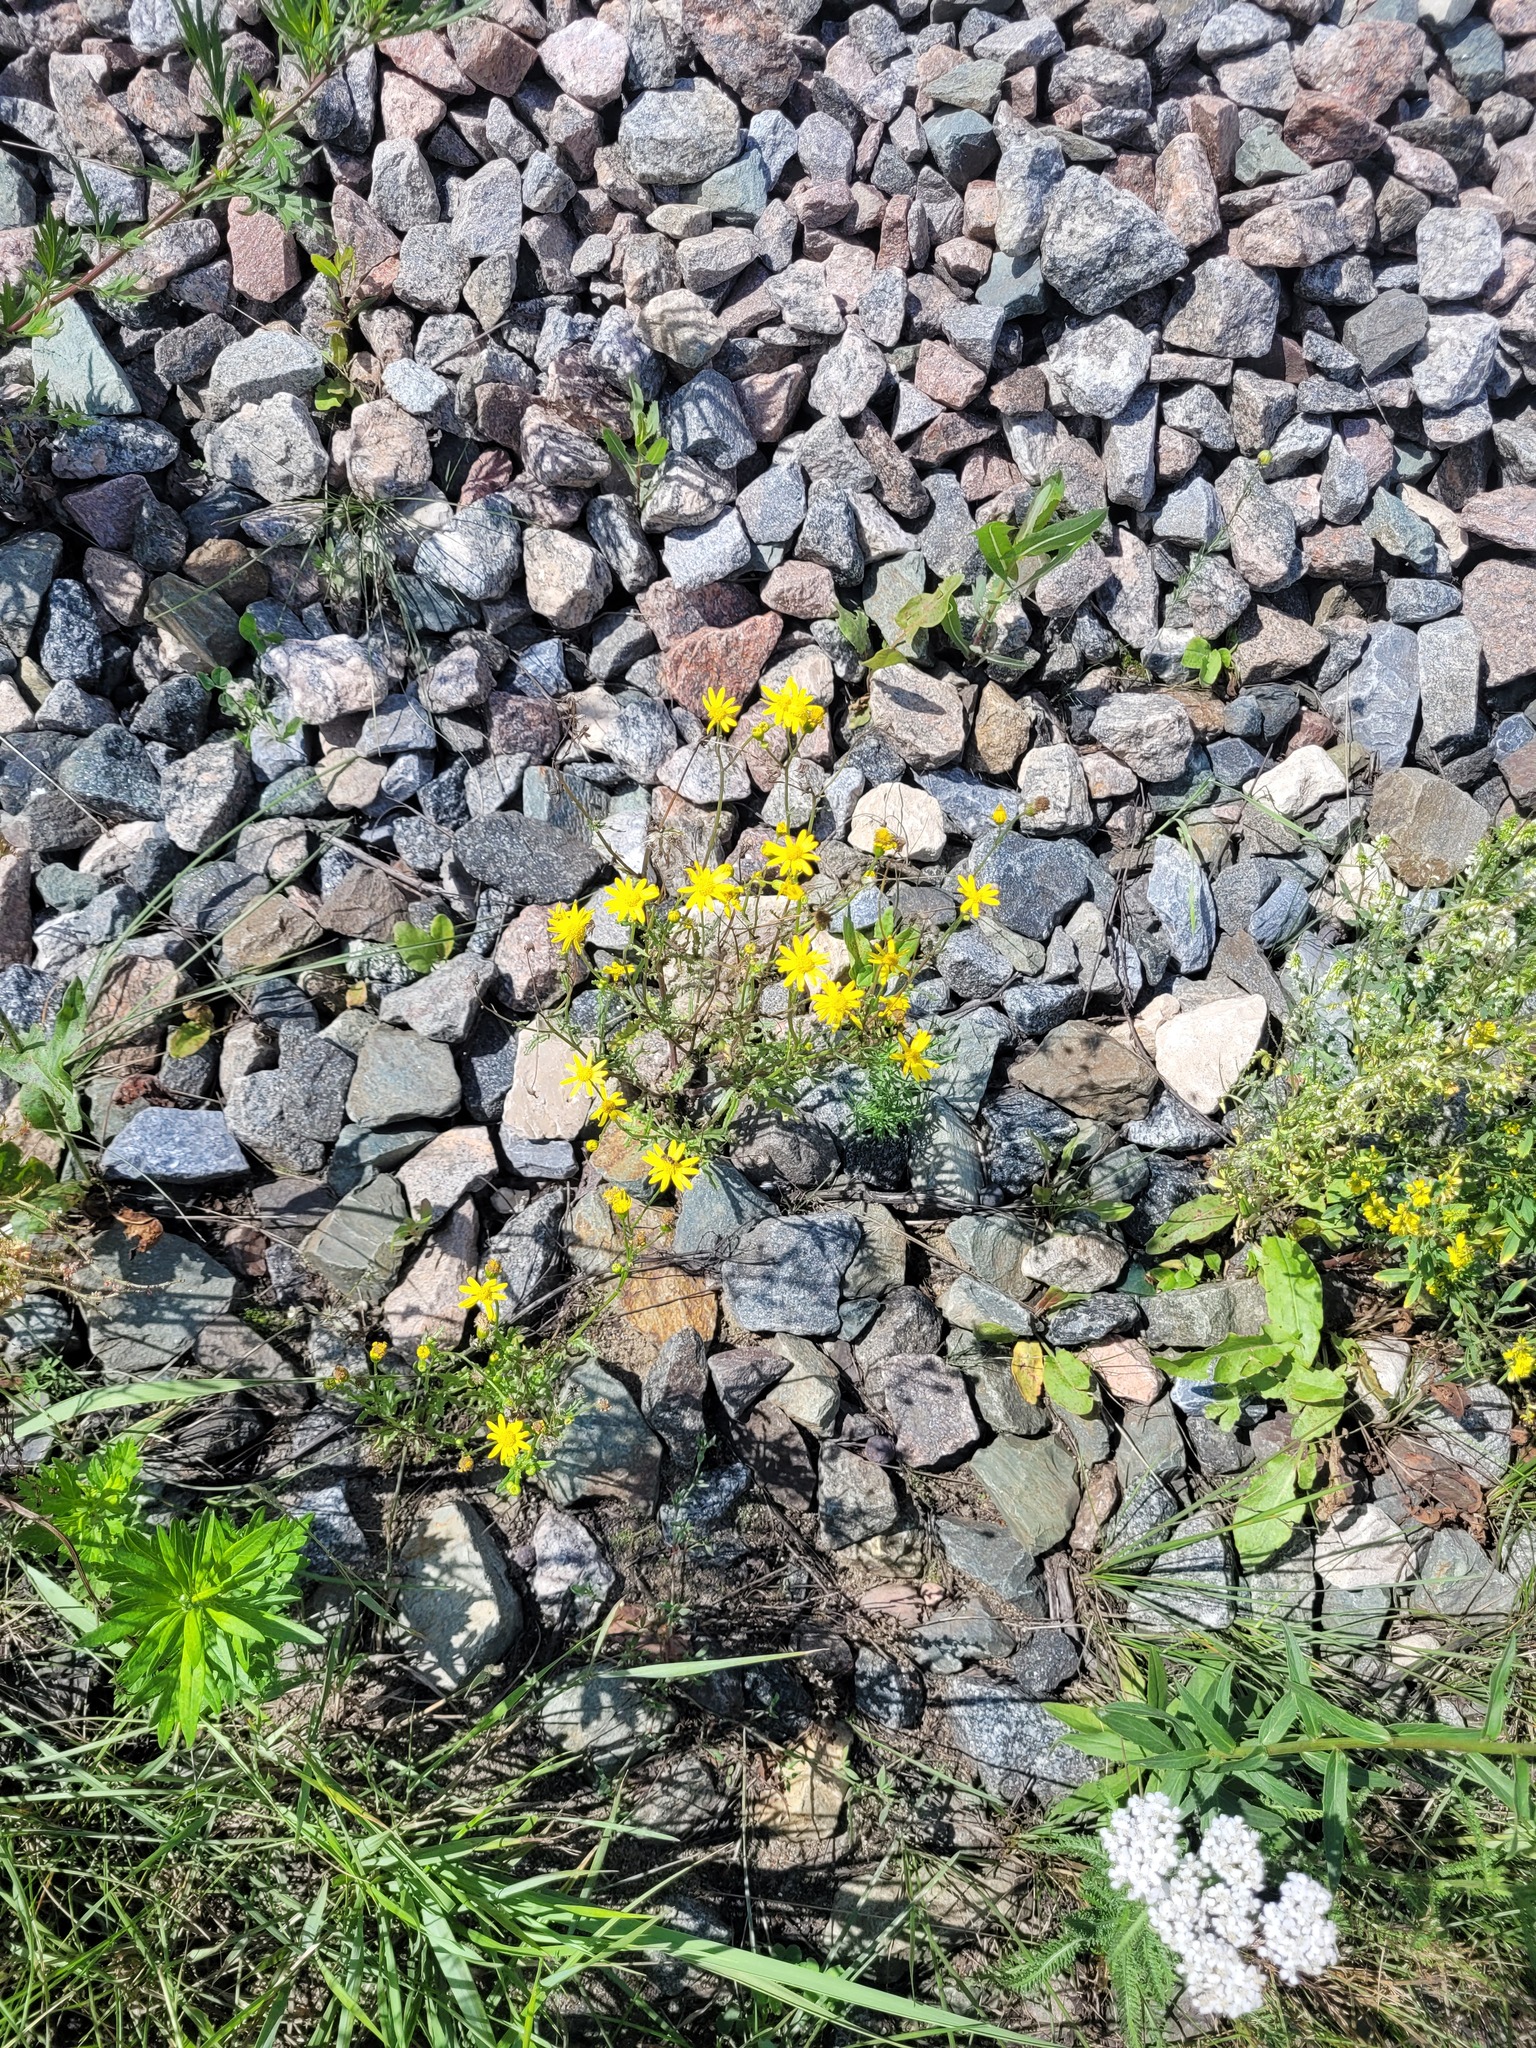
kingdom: Plantae
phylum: Tracheophyta
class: Magnoliopsida
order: Asterales
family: Asteraceae
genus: Senecio
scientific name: Senecio vernalis
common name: Eastern groundsel
